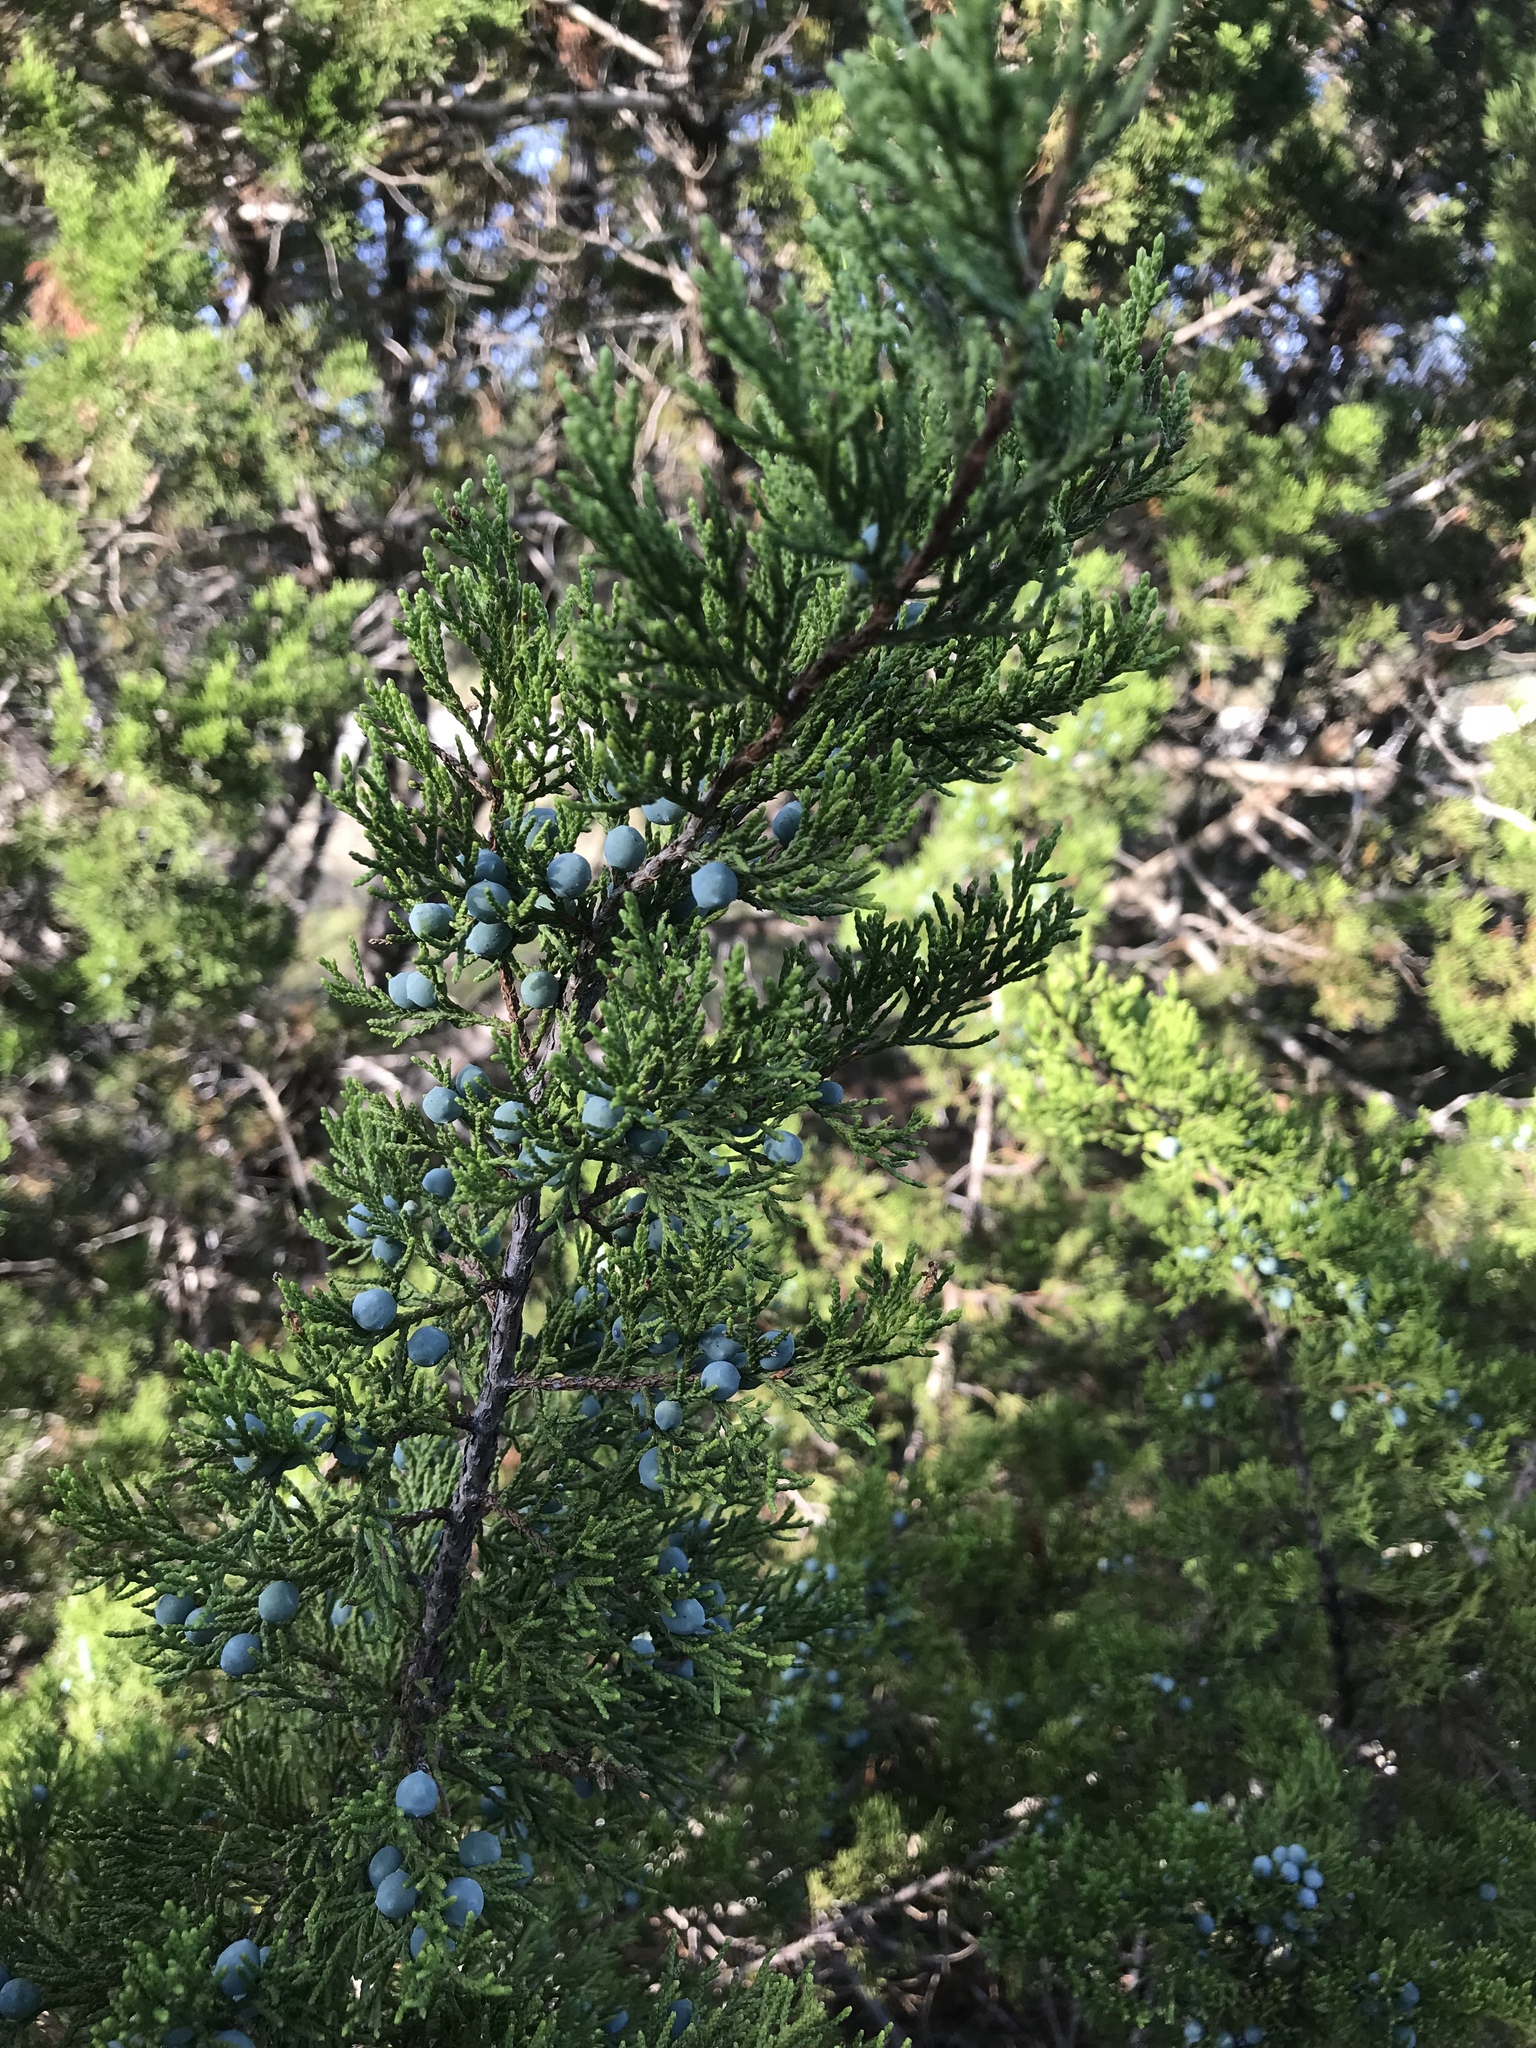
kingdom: Plantae
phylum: Tracheophyta
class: Pinopsida
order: Pinales
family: Cupressaceae
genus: Juniperus
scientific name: Juniperus ashei
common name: Mexican juniper
